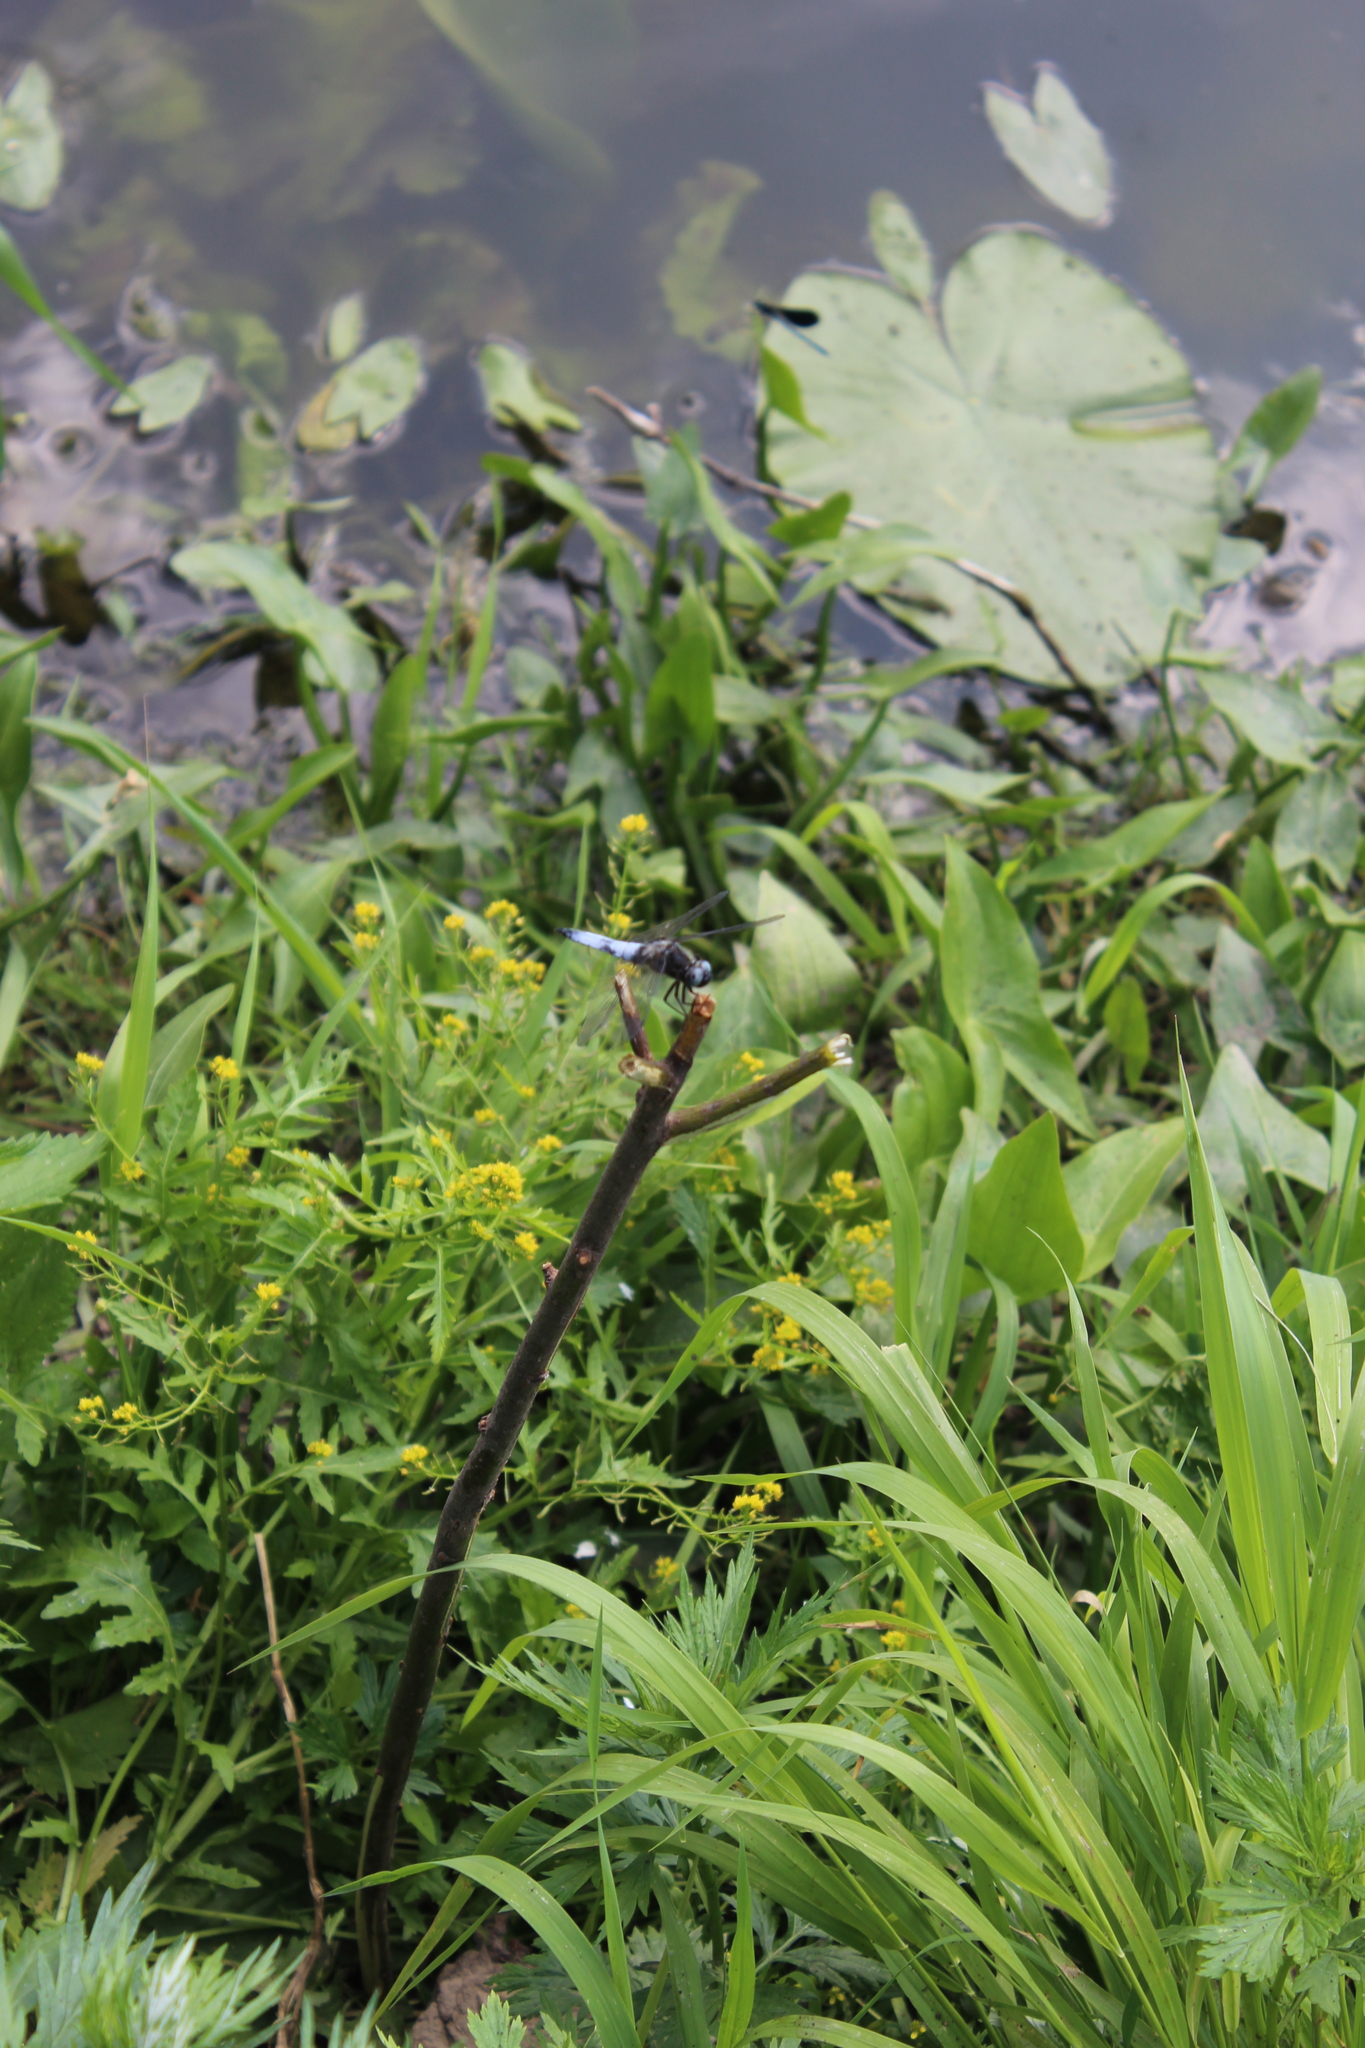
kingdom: Animalia
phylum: Arthropoda
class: Insecta
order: Odonata
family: Libellulidae
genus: Libellula
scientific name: Libellula fulva
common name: Blue chaser
